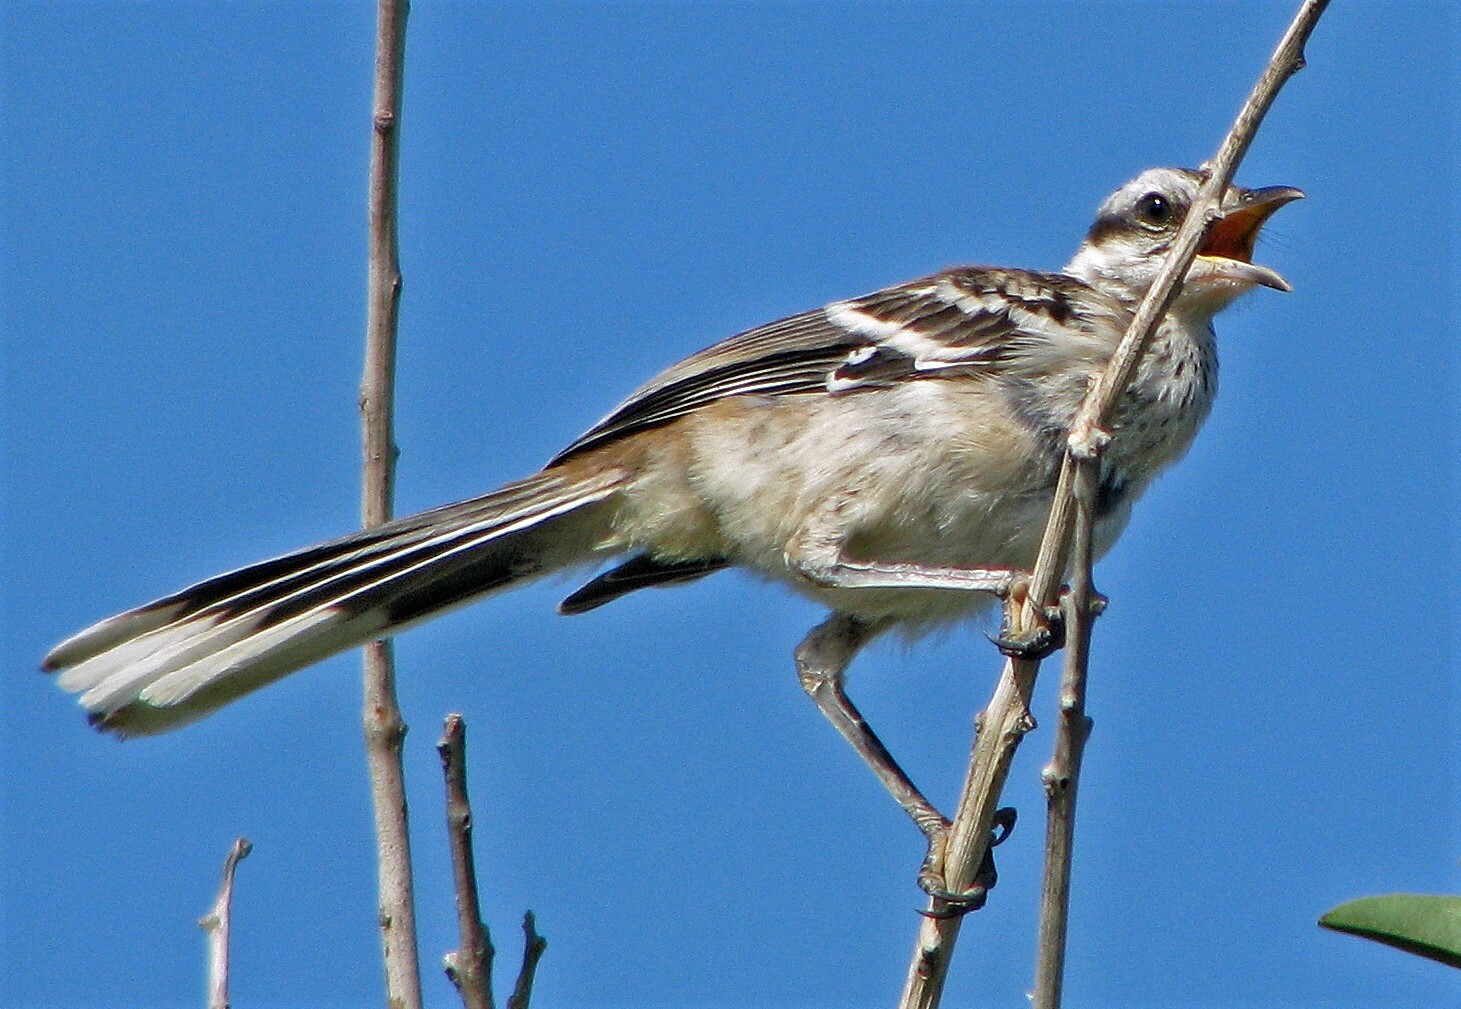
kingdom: Animalia
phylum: Chordata
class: Aves
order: Passeriformes
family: Mimidae
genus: Mimus
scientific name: Mimus saturninus
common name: Chalk-browed mockingbird
